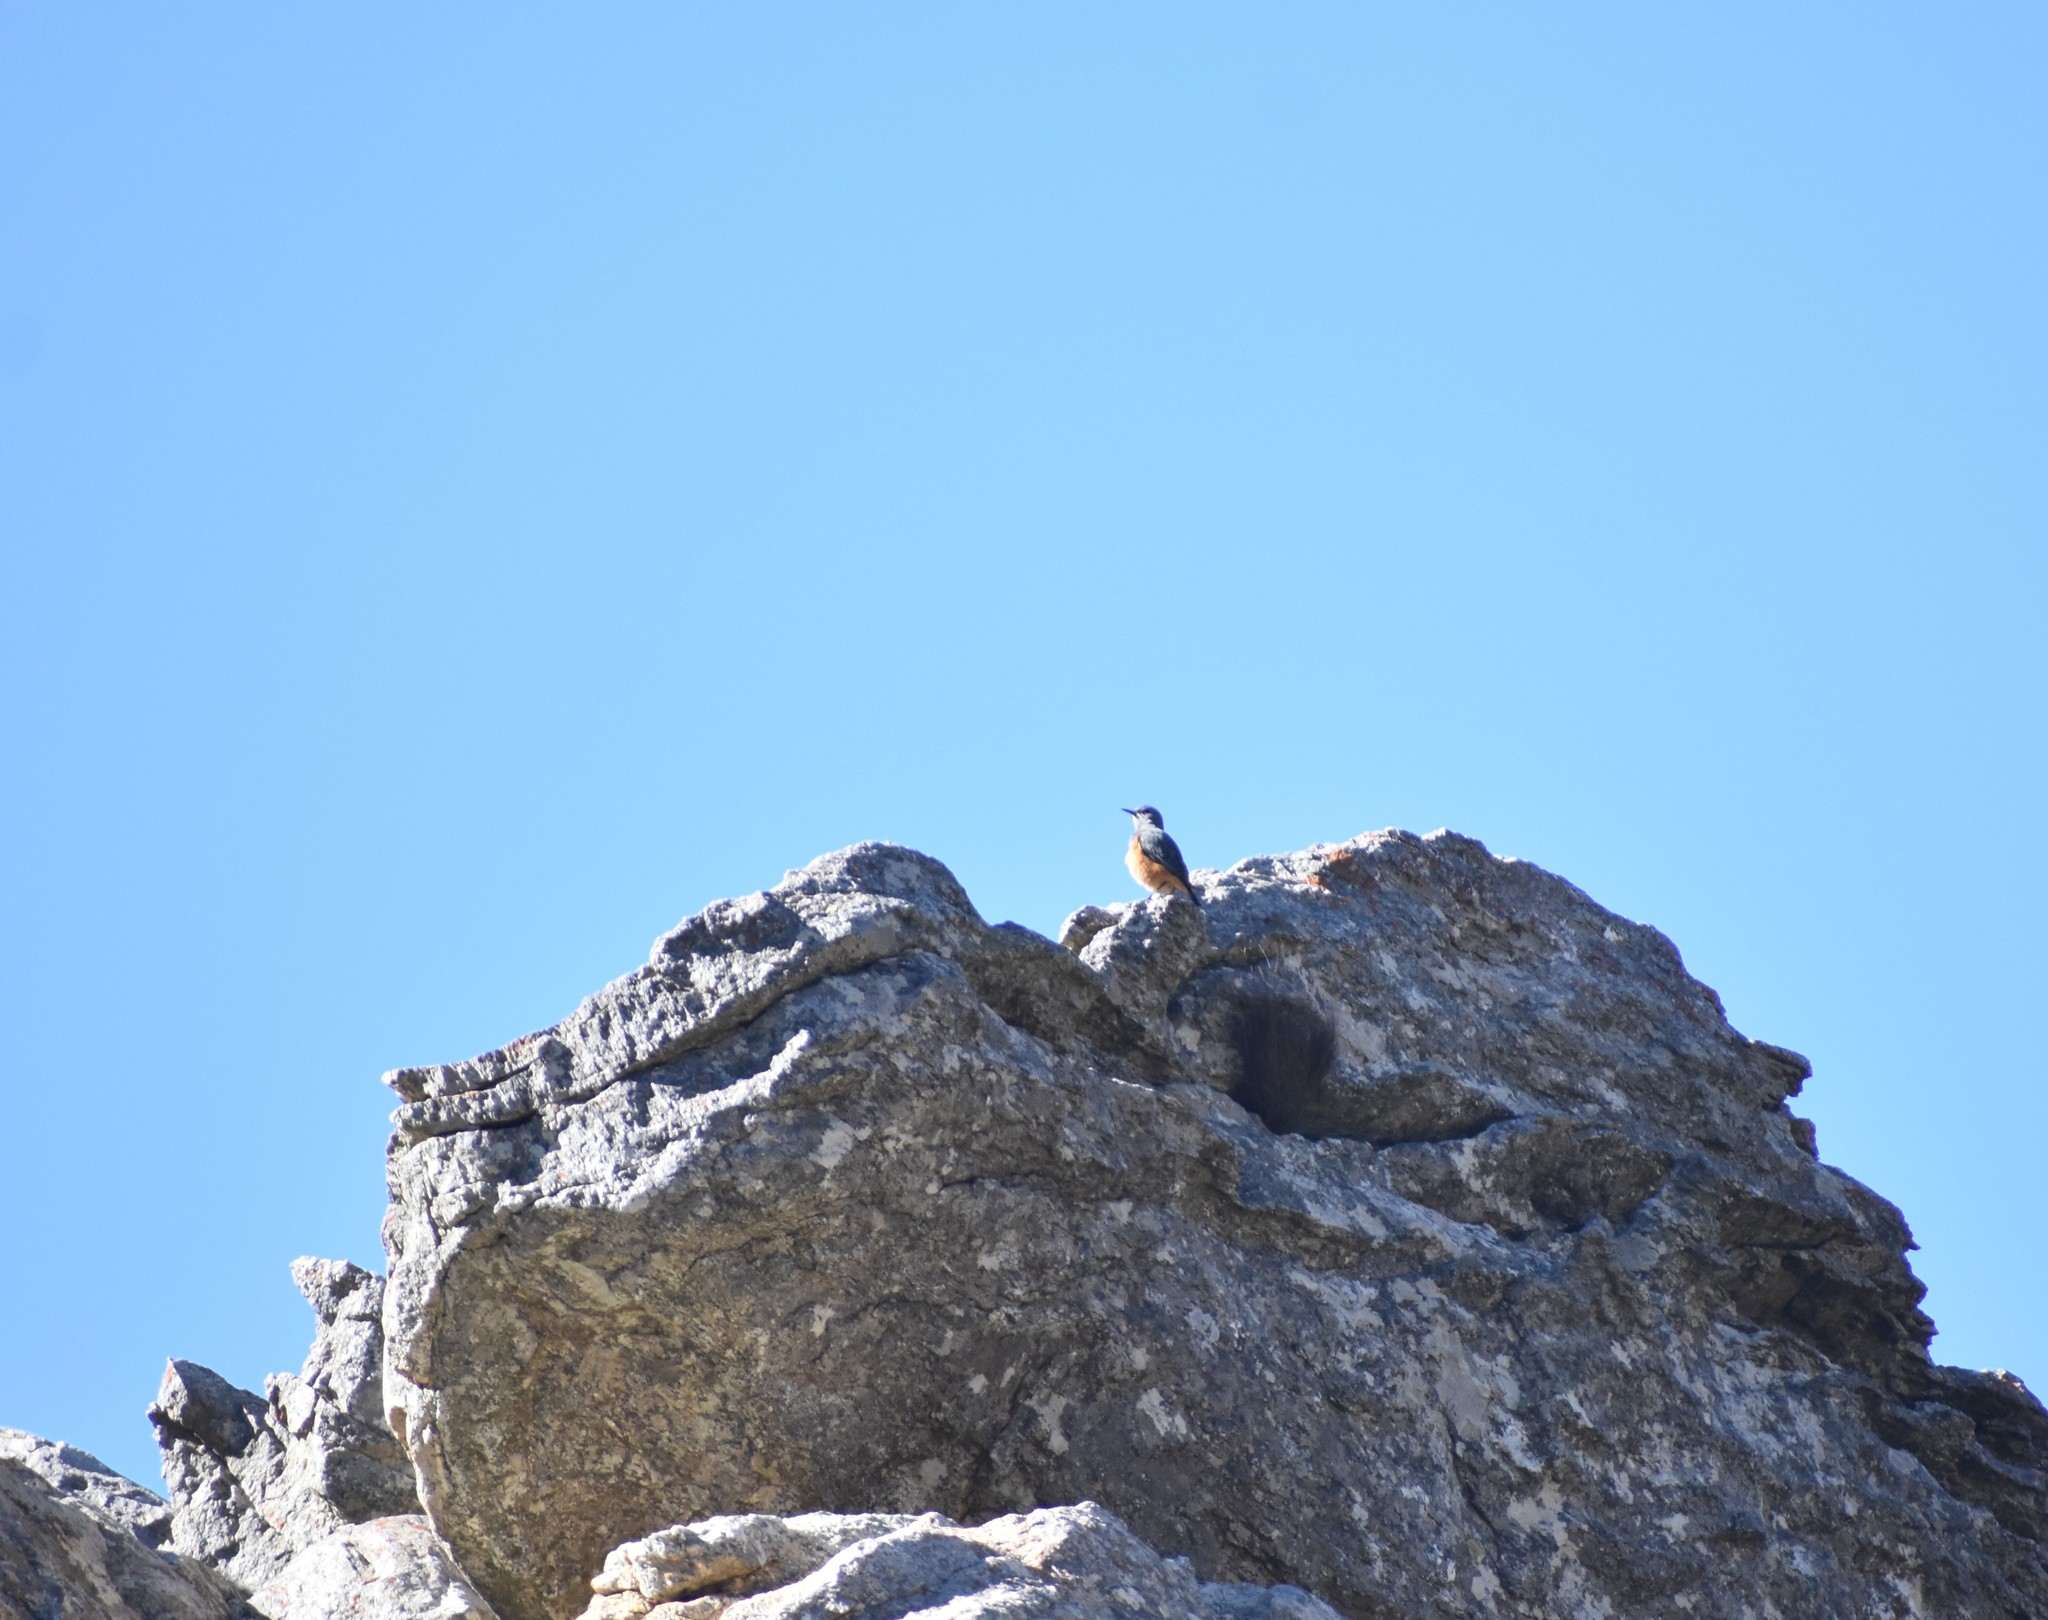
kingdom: Animalia
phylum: Chordata
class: Aves
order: Passeriformes
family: Muscicapidae
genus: Monticola
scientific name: Monticola explorator
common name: Sentinel rock thrush
